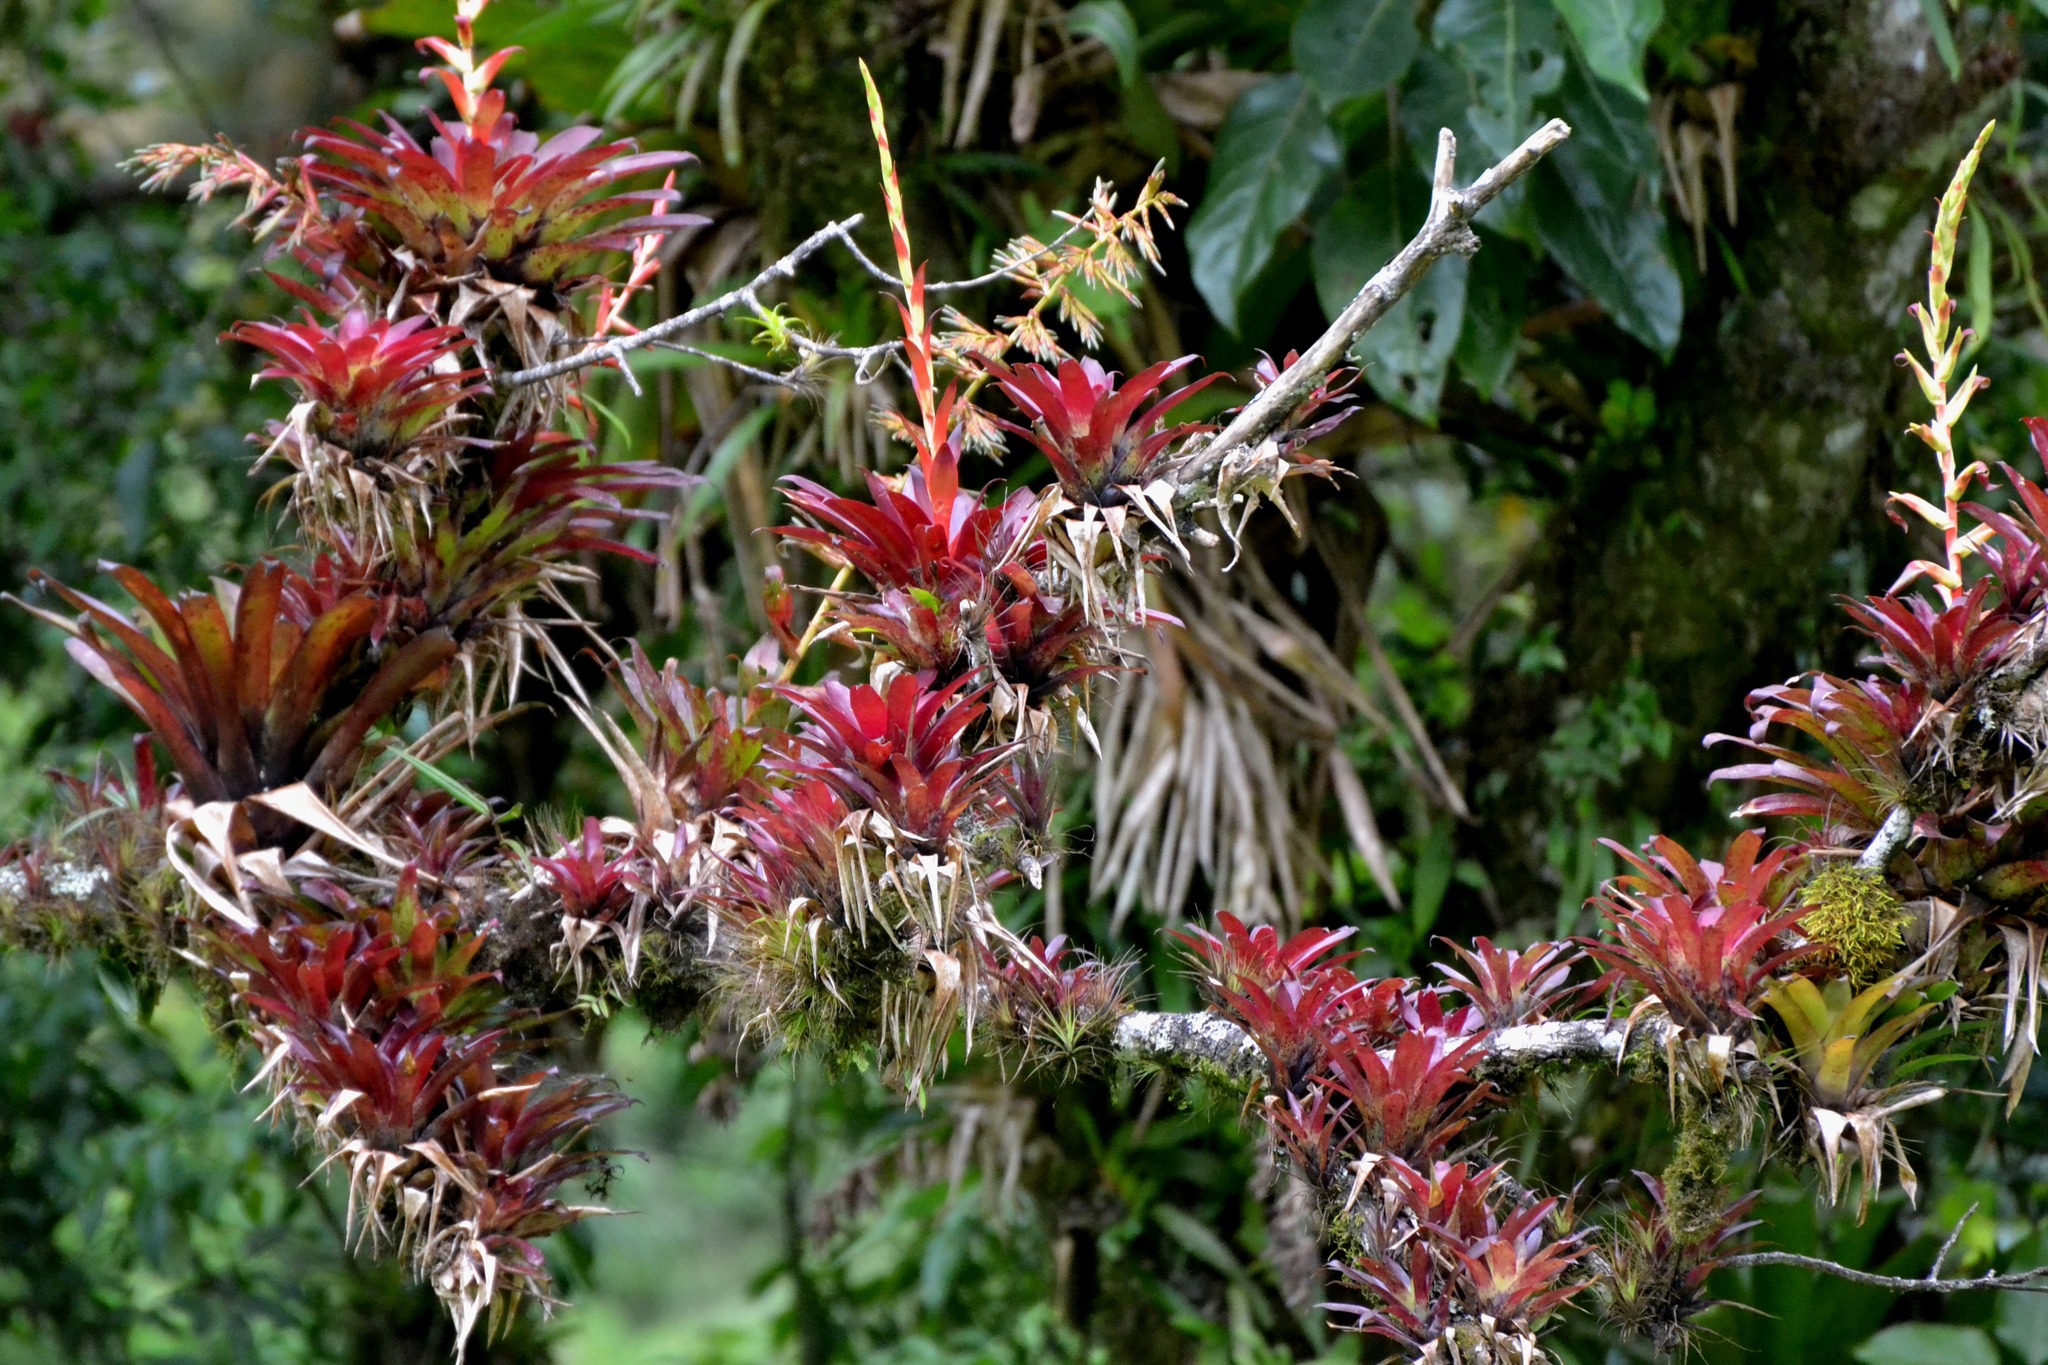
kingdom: Plantae
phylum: Tracheophyta
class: Liliopsida
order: Poales
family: Bromeliaceae
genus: Tillandsia
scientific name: Tillandsia guatemalensis
